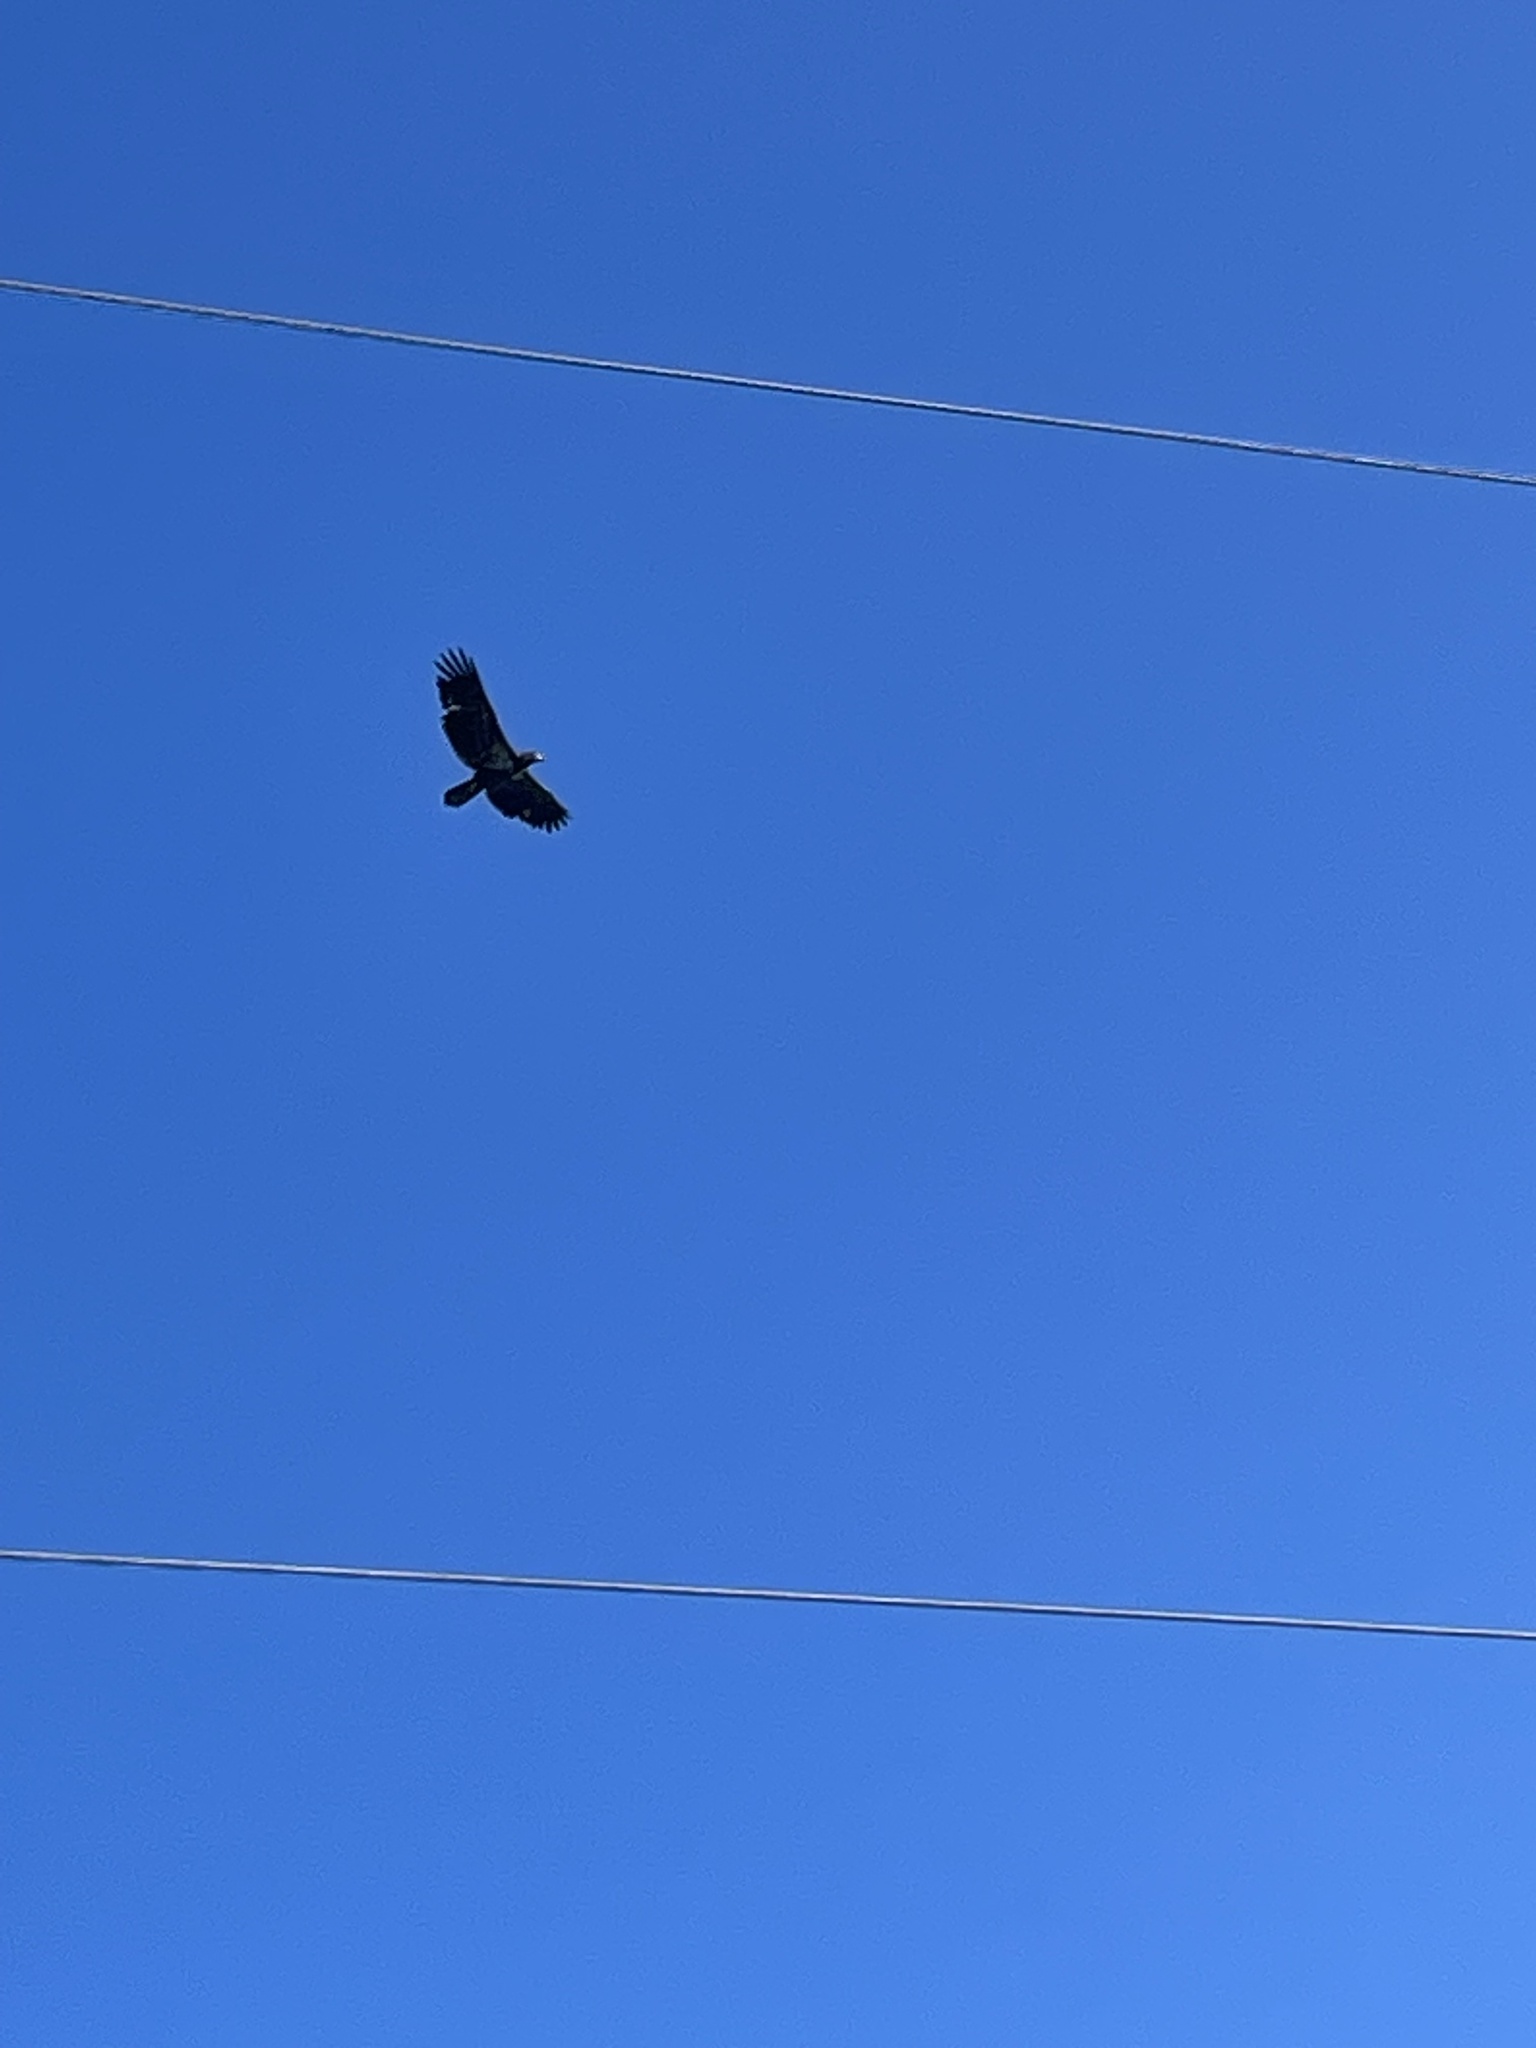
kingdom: Animalia
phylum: Chordata
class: Aves
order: Accipitriformes
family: Accipitridae
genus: Haliaeetus
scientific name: Haliaeetus leucocephalus
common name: Bald eagle
